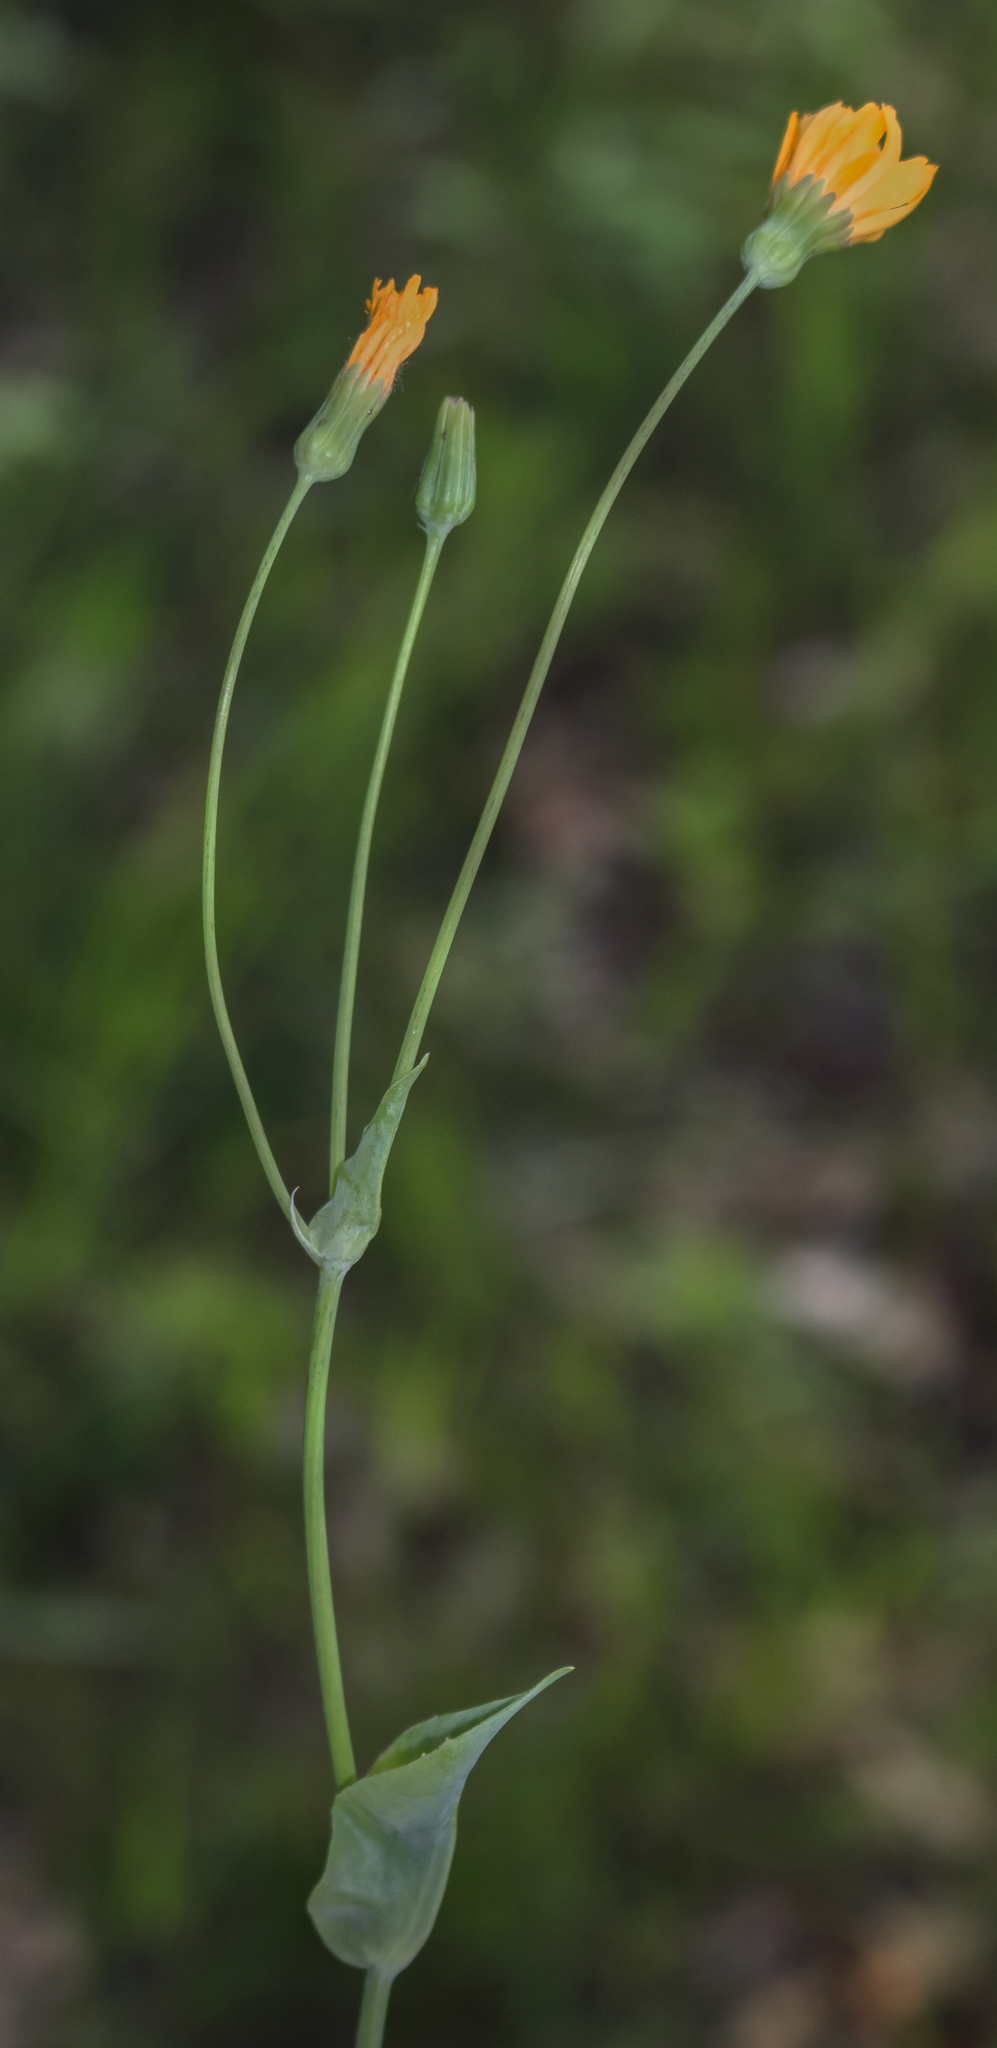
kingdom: Plantae
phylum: Tracheophyta
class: Magnoliopsida
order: Asterales
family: Asteraceae
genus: Krigia
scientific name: Krigia biflora
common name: Orange dwarf-dandelion
